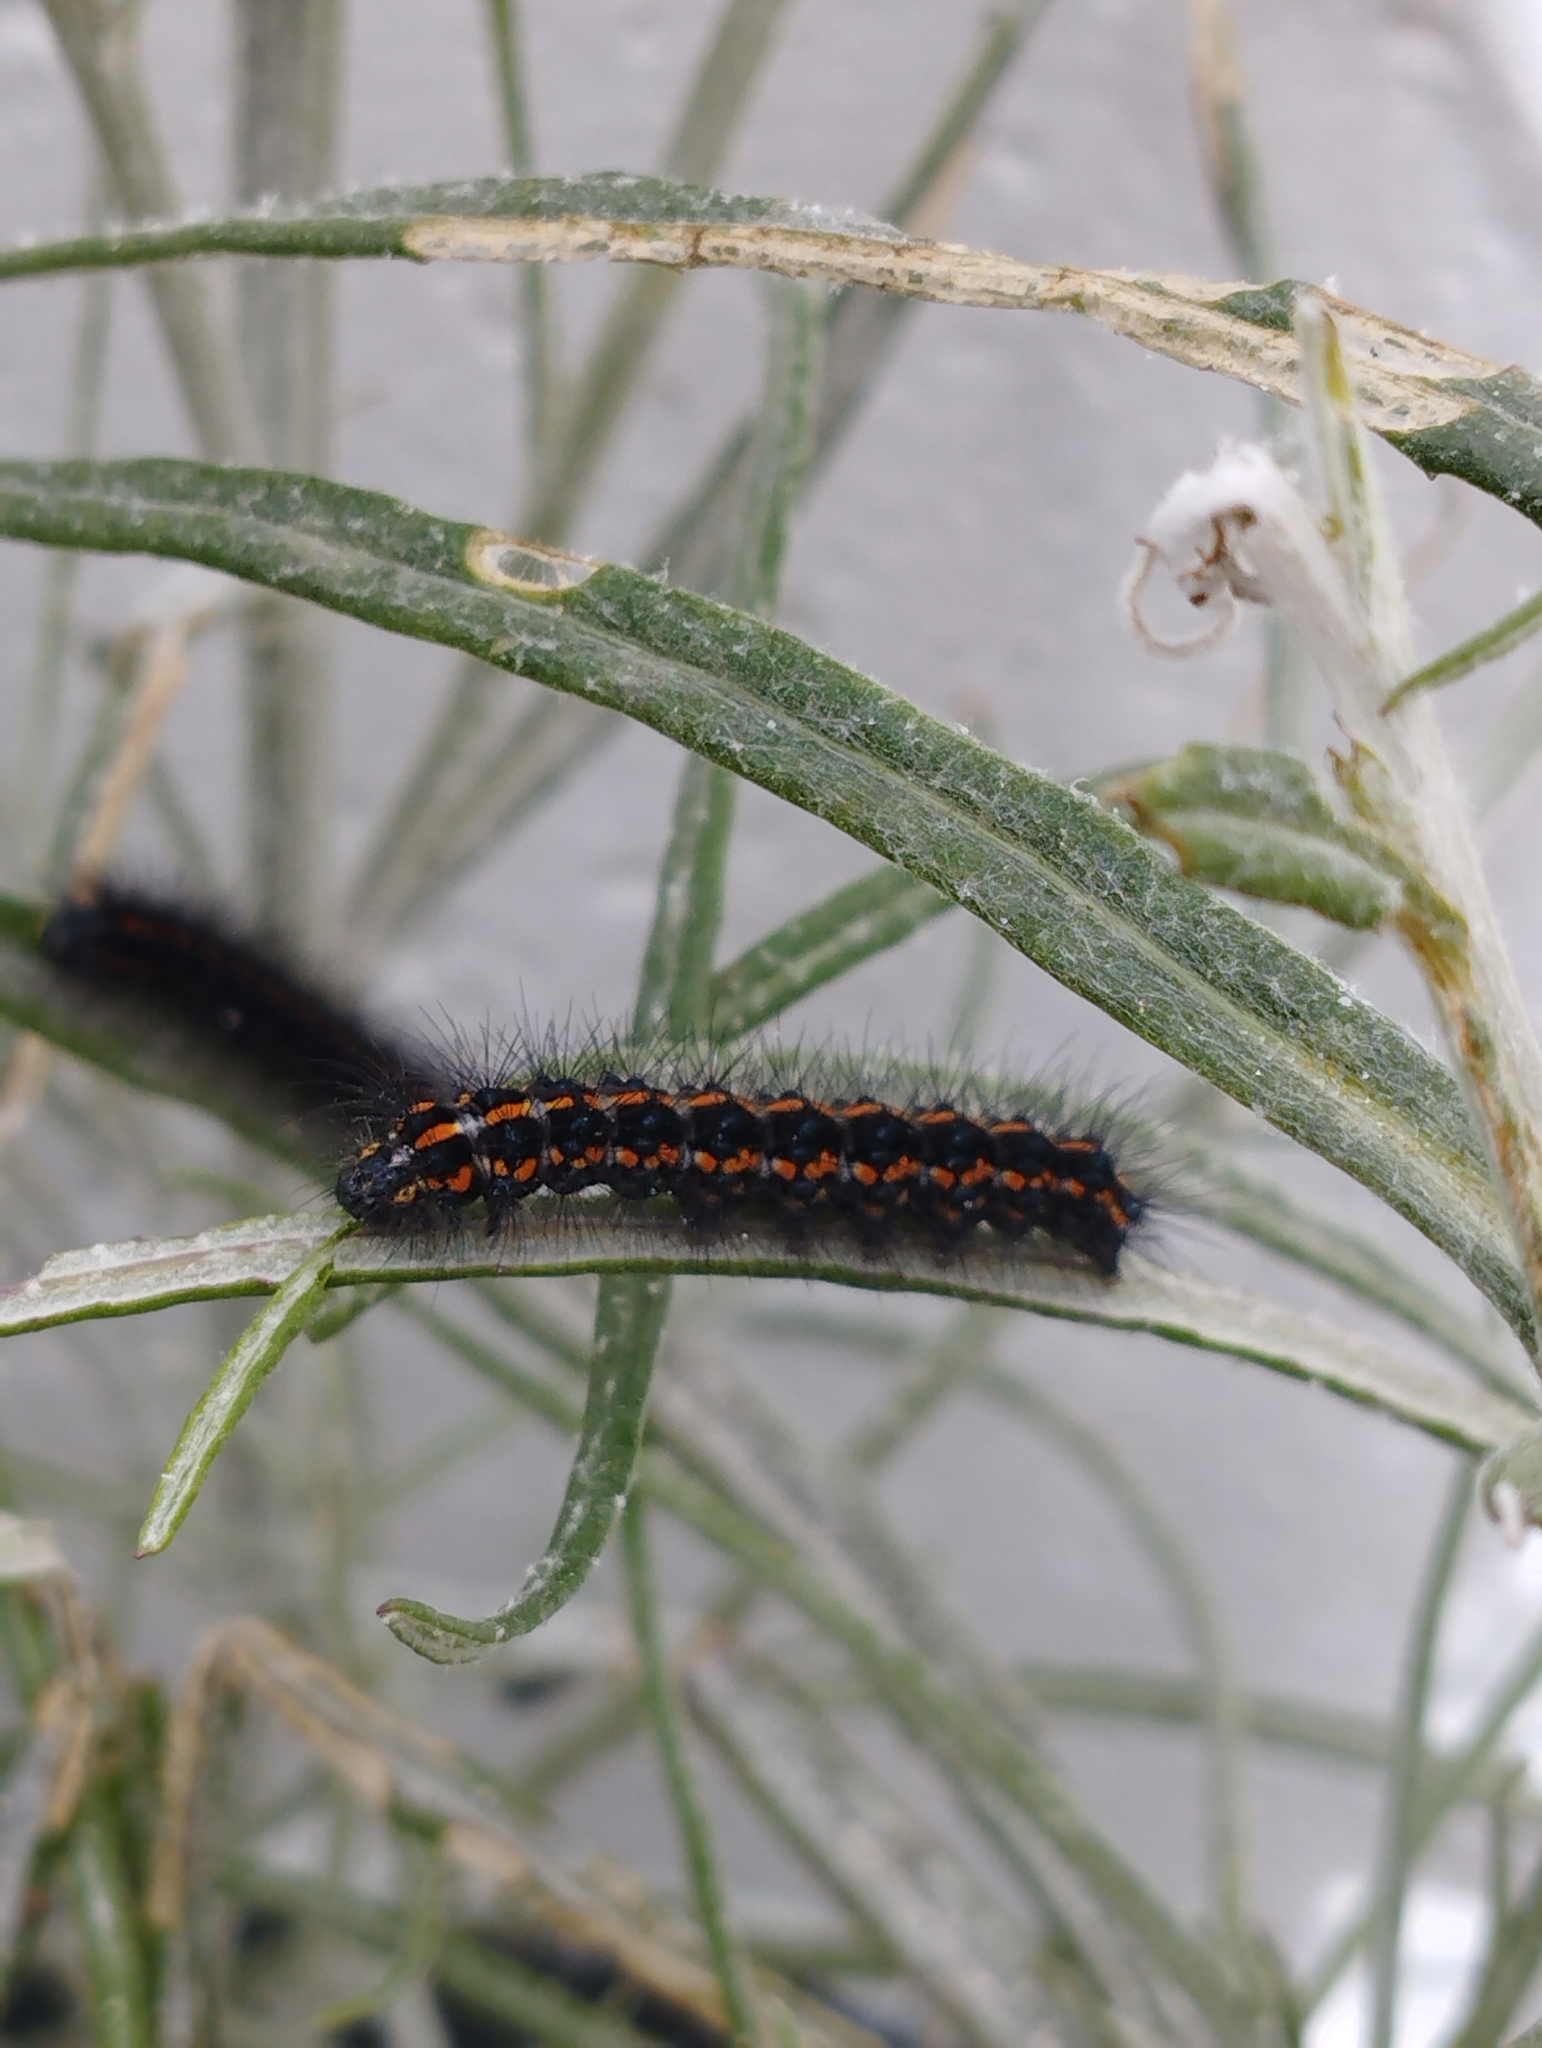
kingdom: Animalia
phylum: Arthropoda
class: Insecta
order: Lepidoptera
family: Erebidae
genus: Nyctemera
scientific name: Nyctemera annulatum
